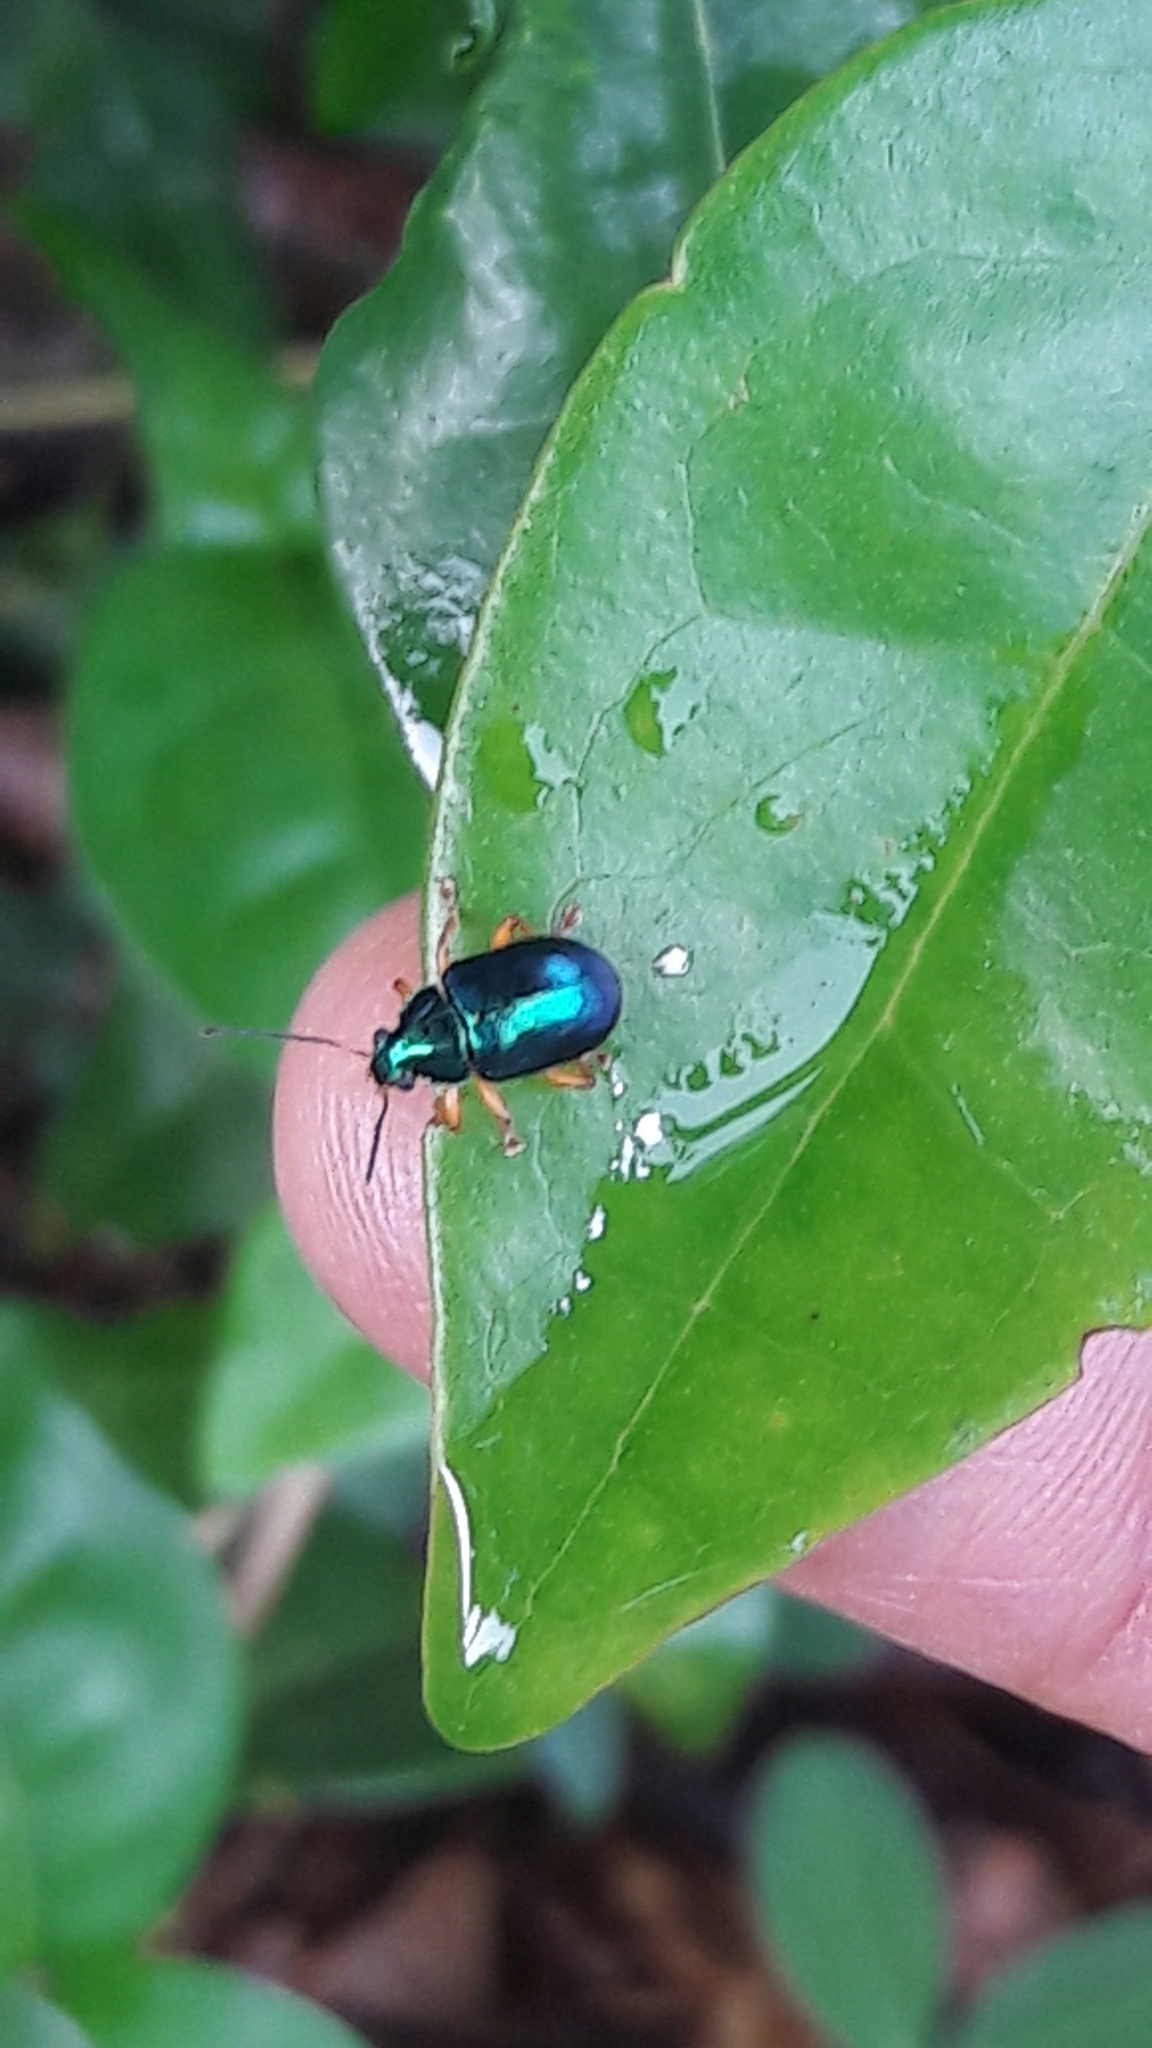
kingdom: Animalia
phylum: Arthropoda
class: Insecta
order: Coleoptera
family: Chrysomelidae
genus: Nodocolaspis
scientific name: Nodocolaspis
